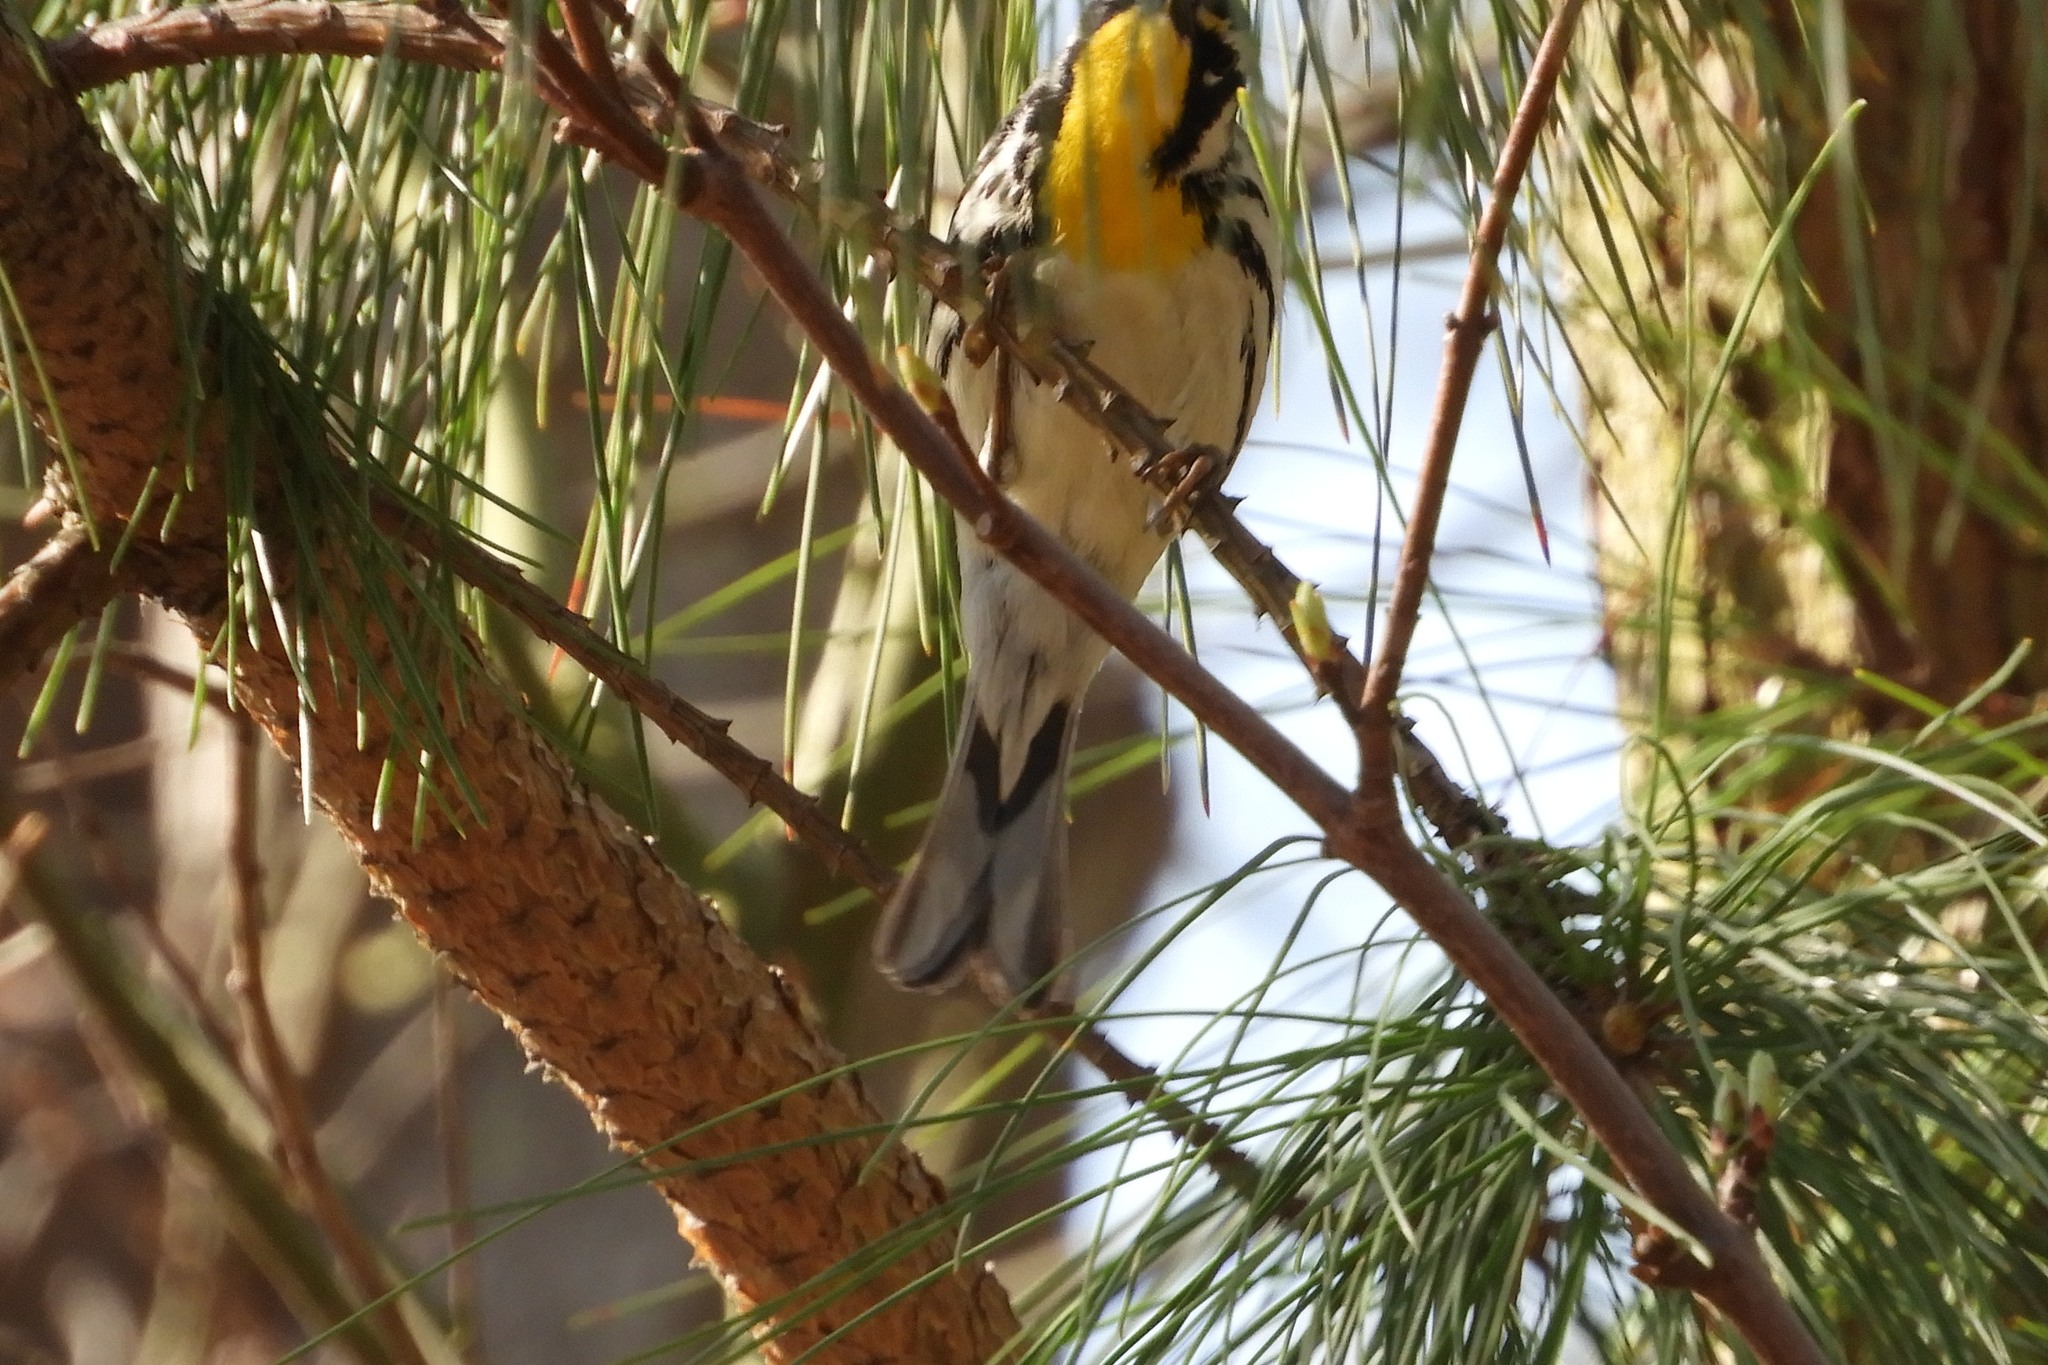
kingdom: Animalia
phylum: Chordata
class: Aves
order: Passeriformes
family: Parulidae
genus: Setophaga
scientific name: Setophaga dominica
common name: Yellow-throated warbler
